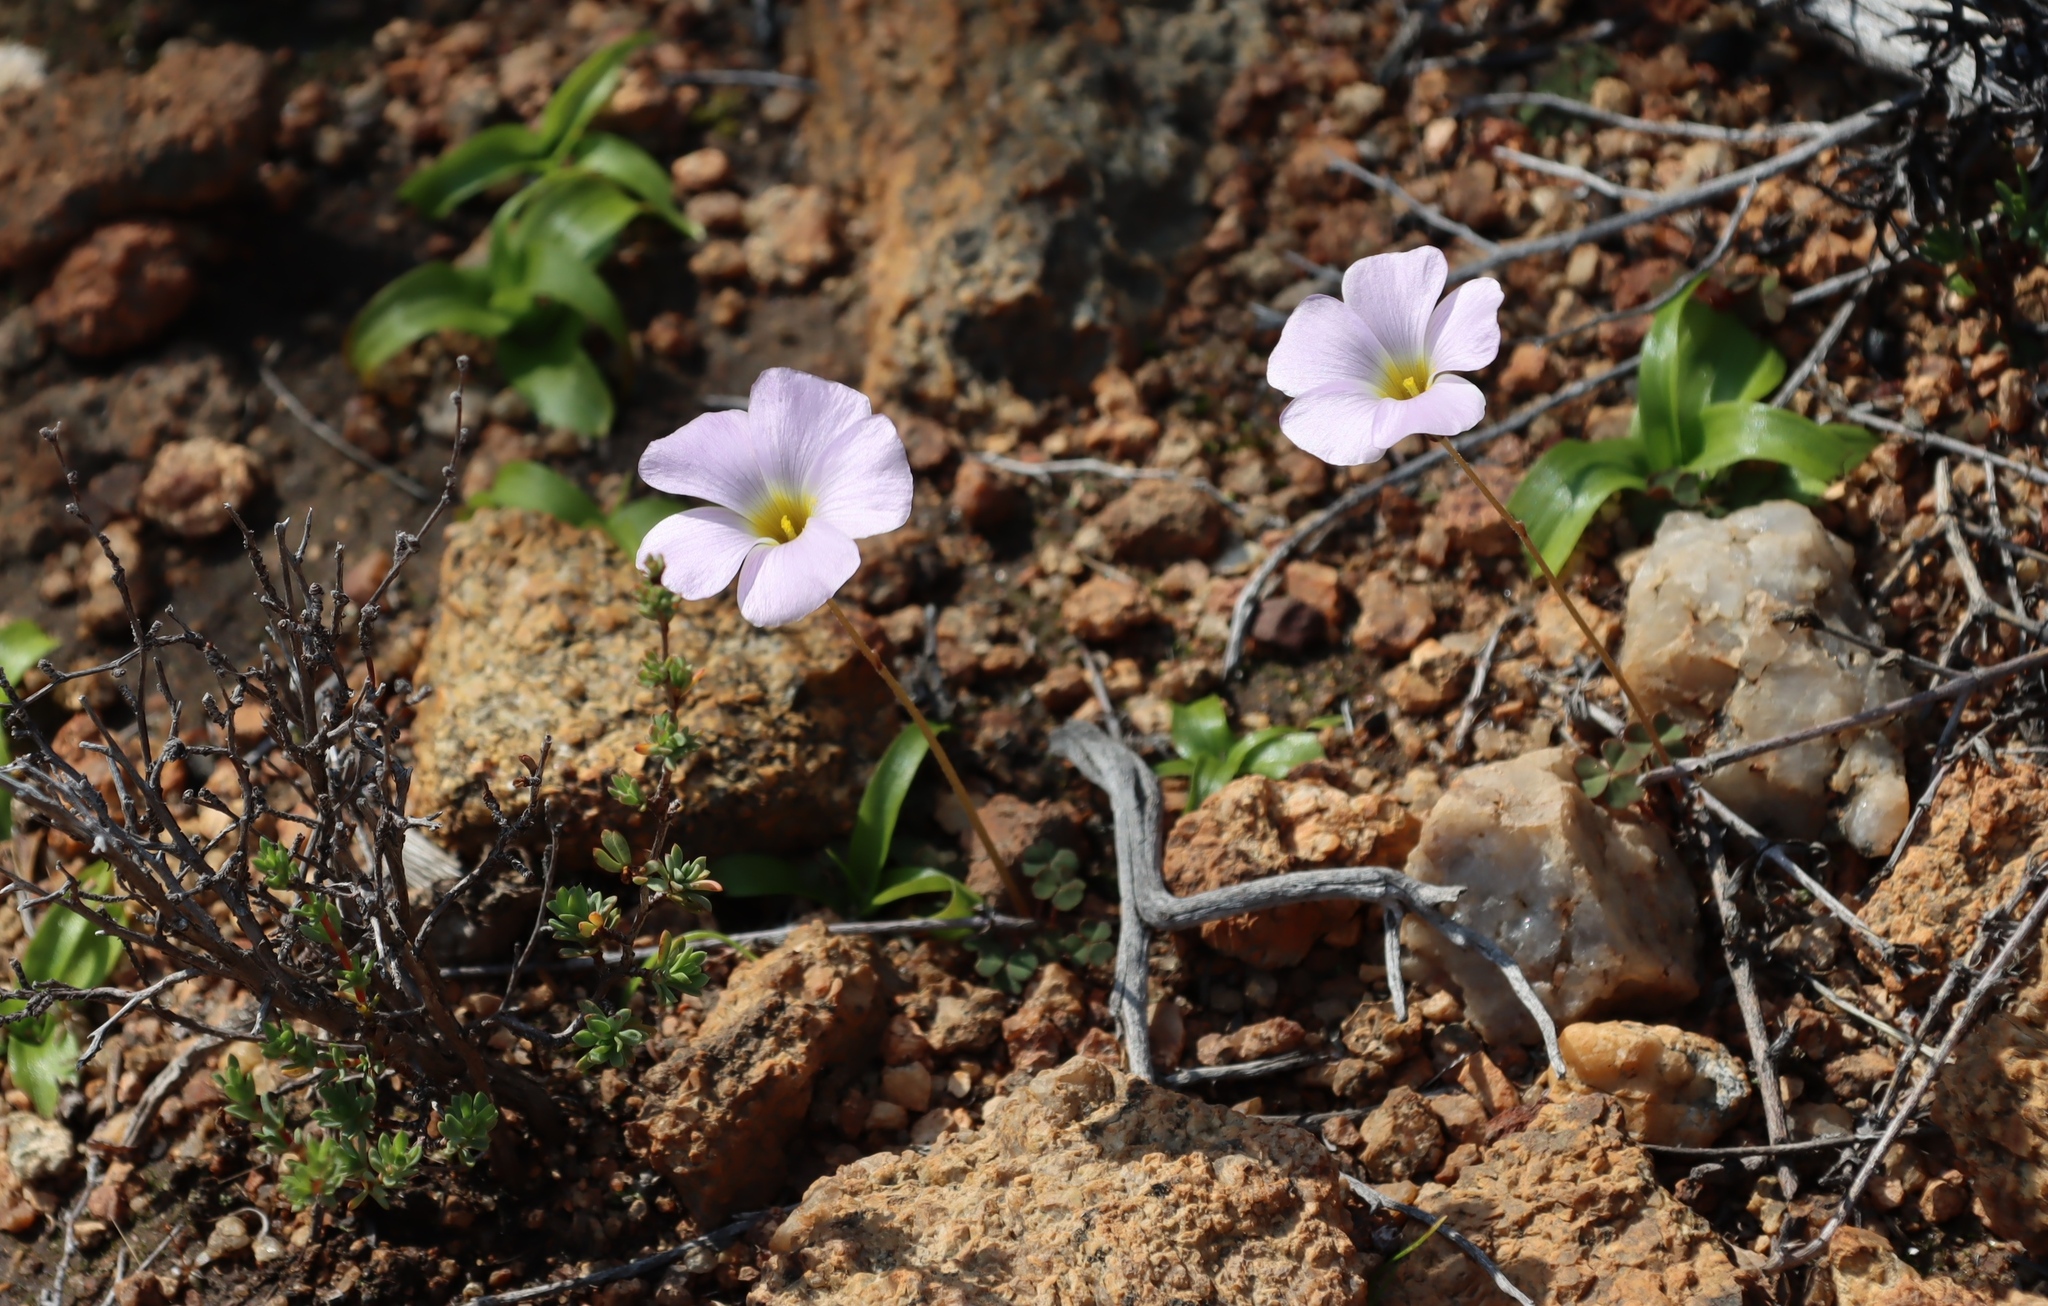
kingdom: Plantae
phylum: Tracheophyta
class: Magnoliopsida
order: Oxalidales
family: Oxalidaceae
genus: Oxalis
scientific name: Oxalis obtusa
